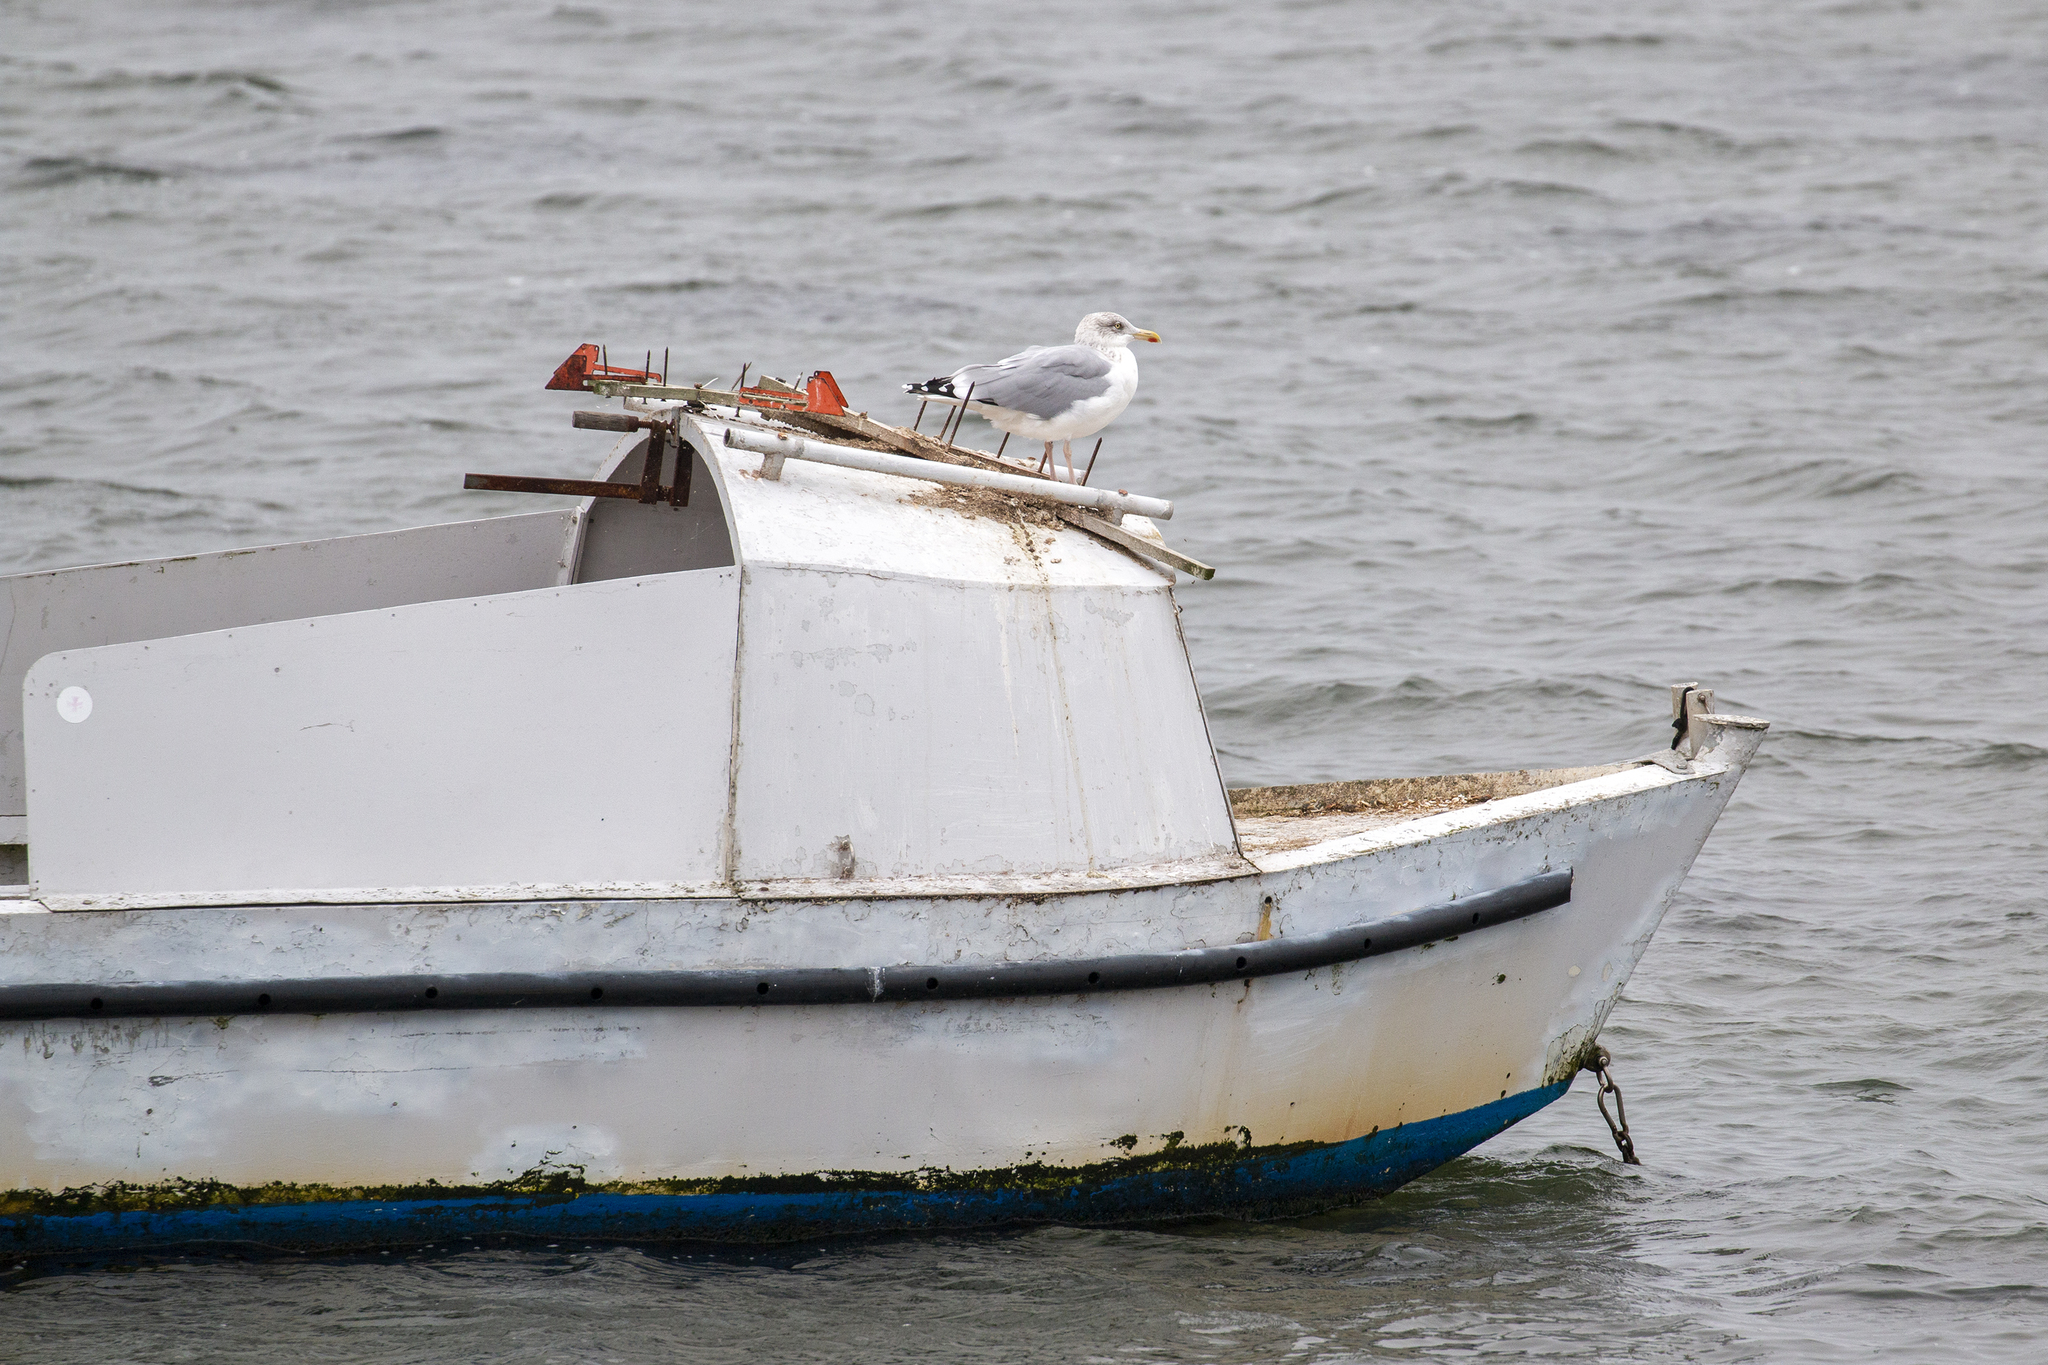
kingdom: Animalia
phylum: Chordata
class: Aves
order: Charadriiformes
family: Laridae
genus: Larus
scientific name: Larus argentatus
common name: Herring gull
